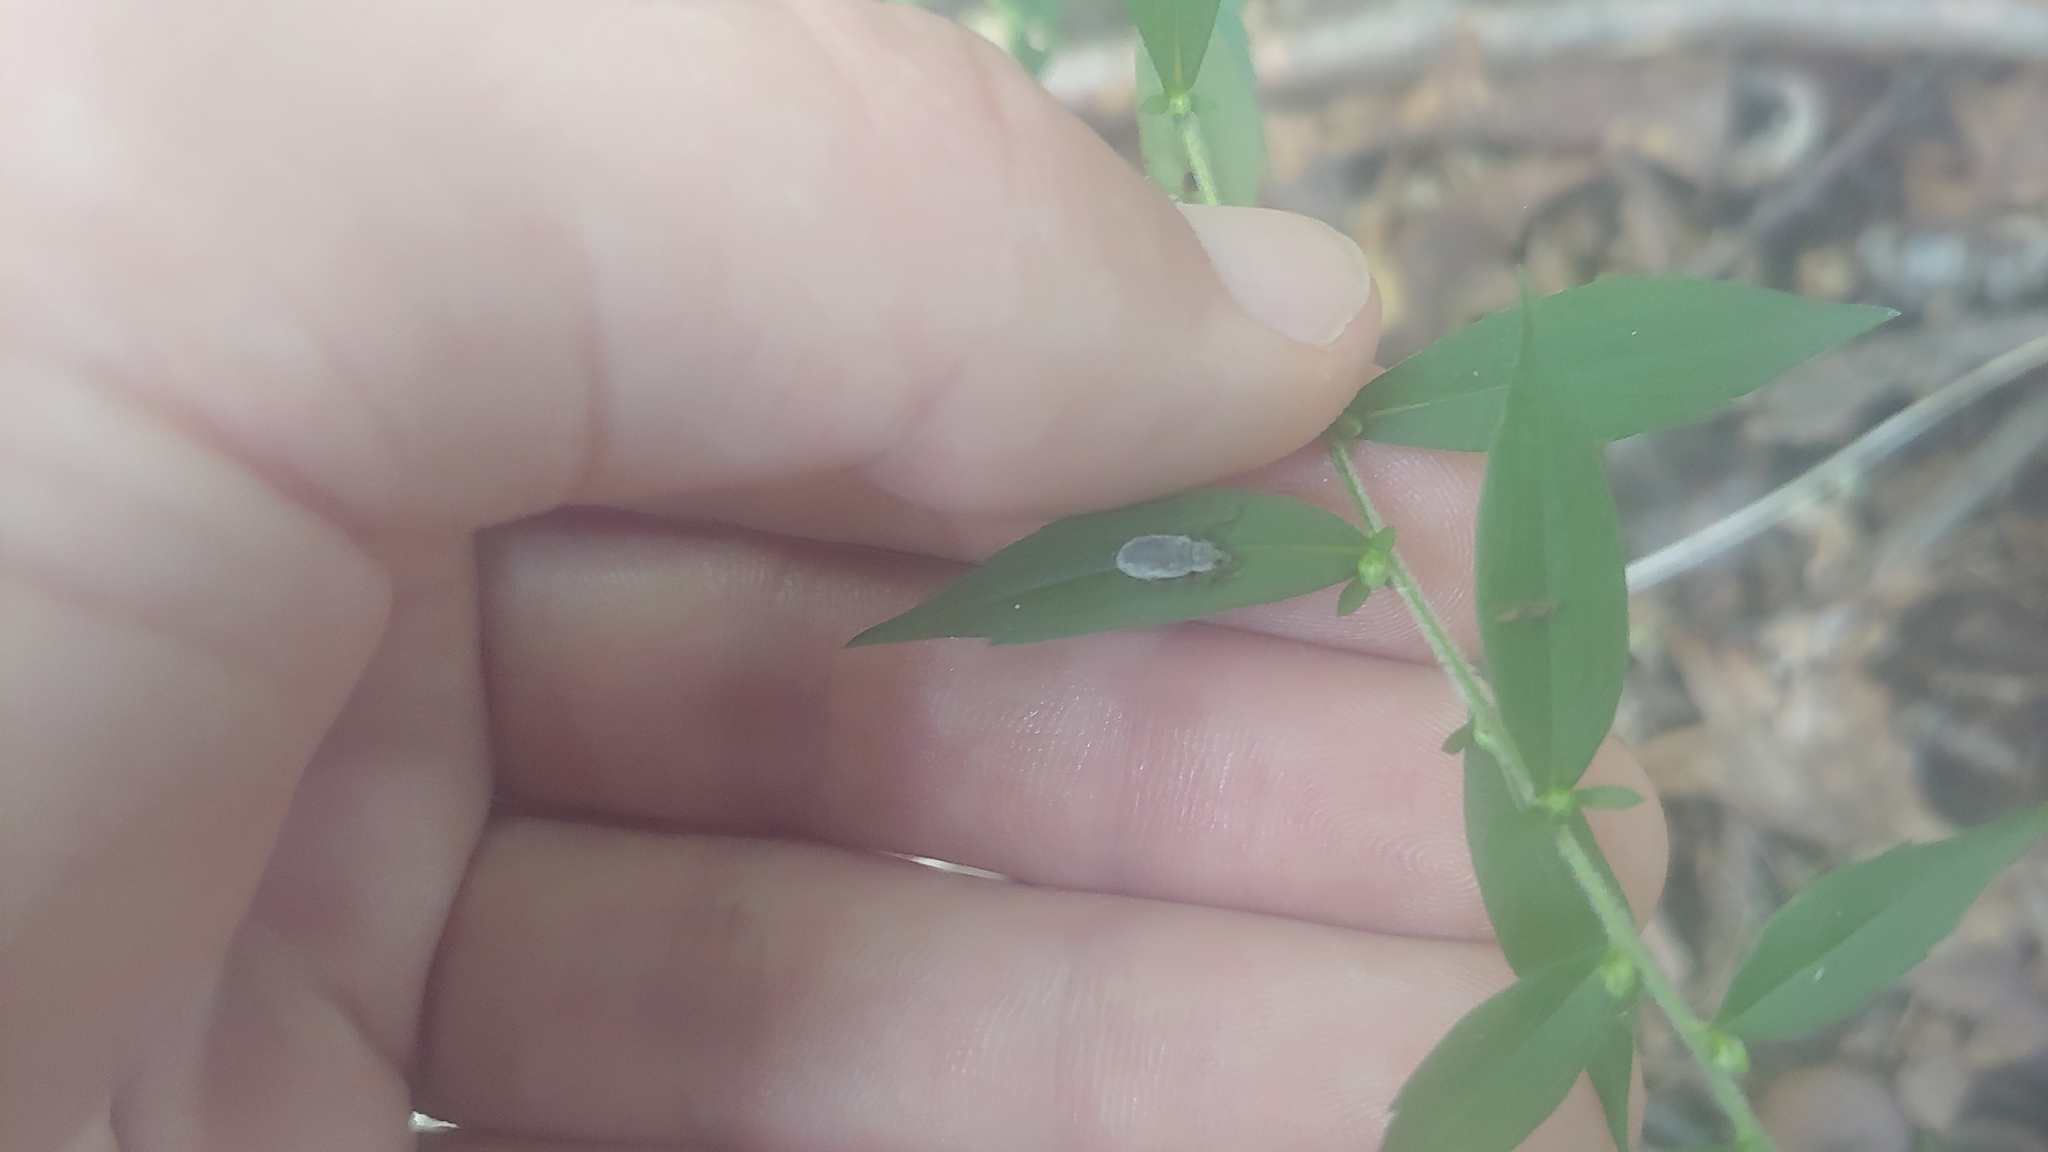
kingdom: Animalia
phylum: Arthropoda
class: Insecta
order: Coleoptera
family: Curculionidae
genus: Cyrtepistomus
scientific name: Cyrtepistomus castaneus
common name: Weevil
